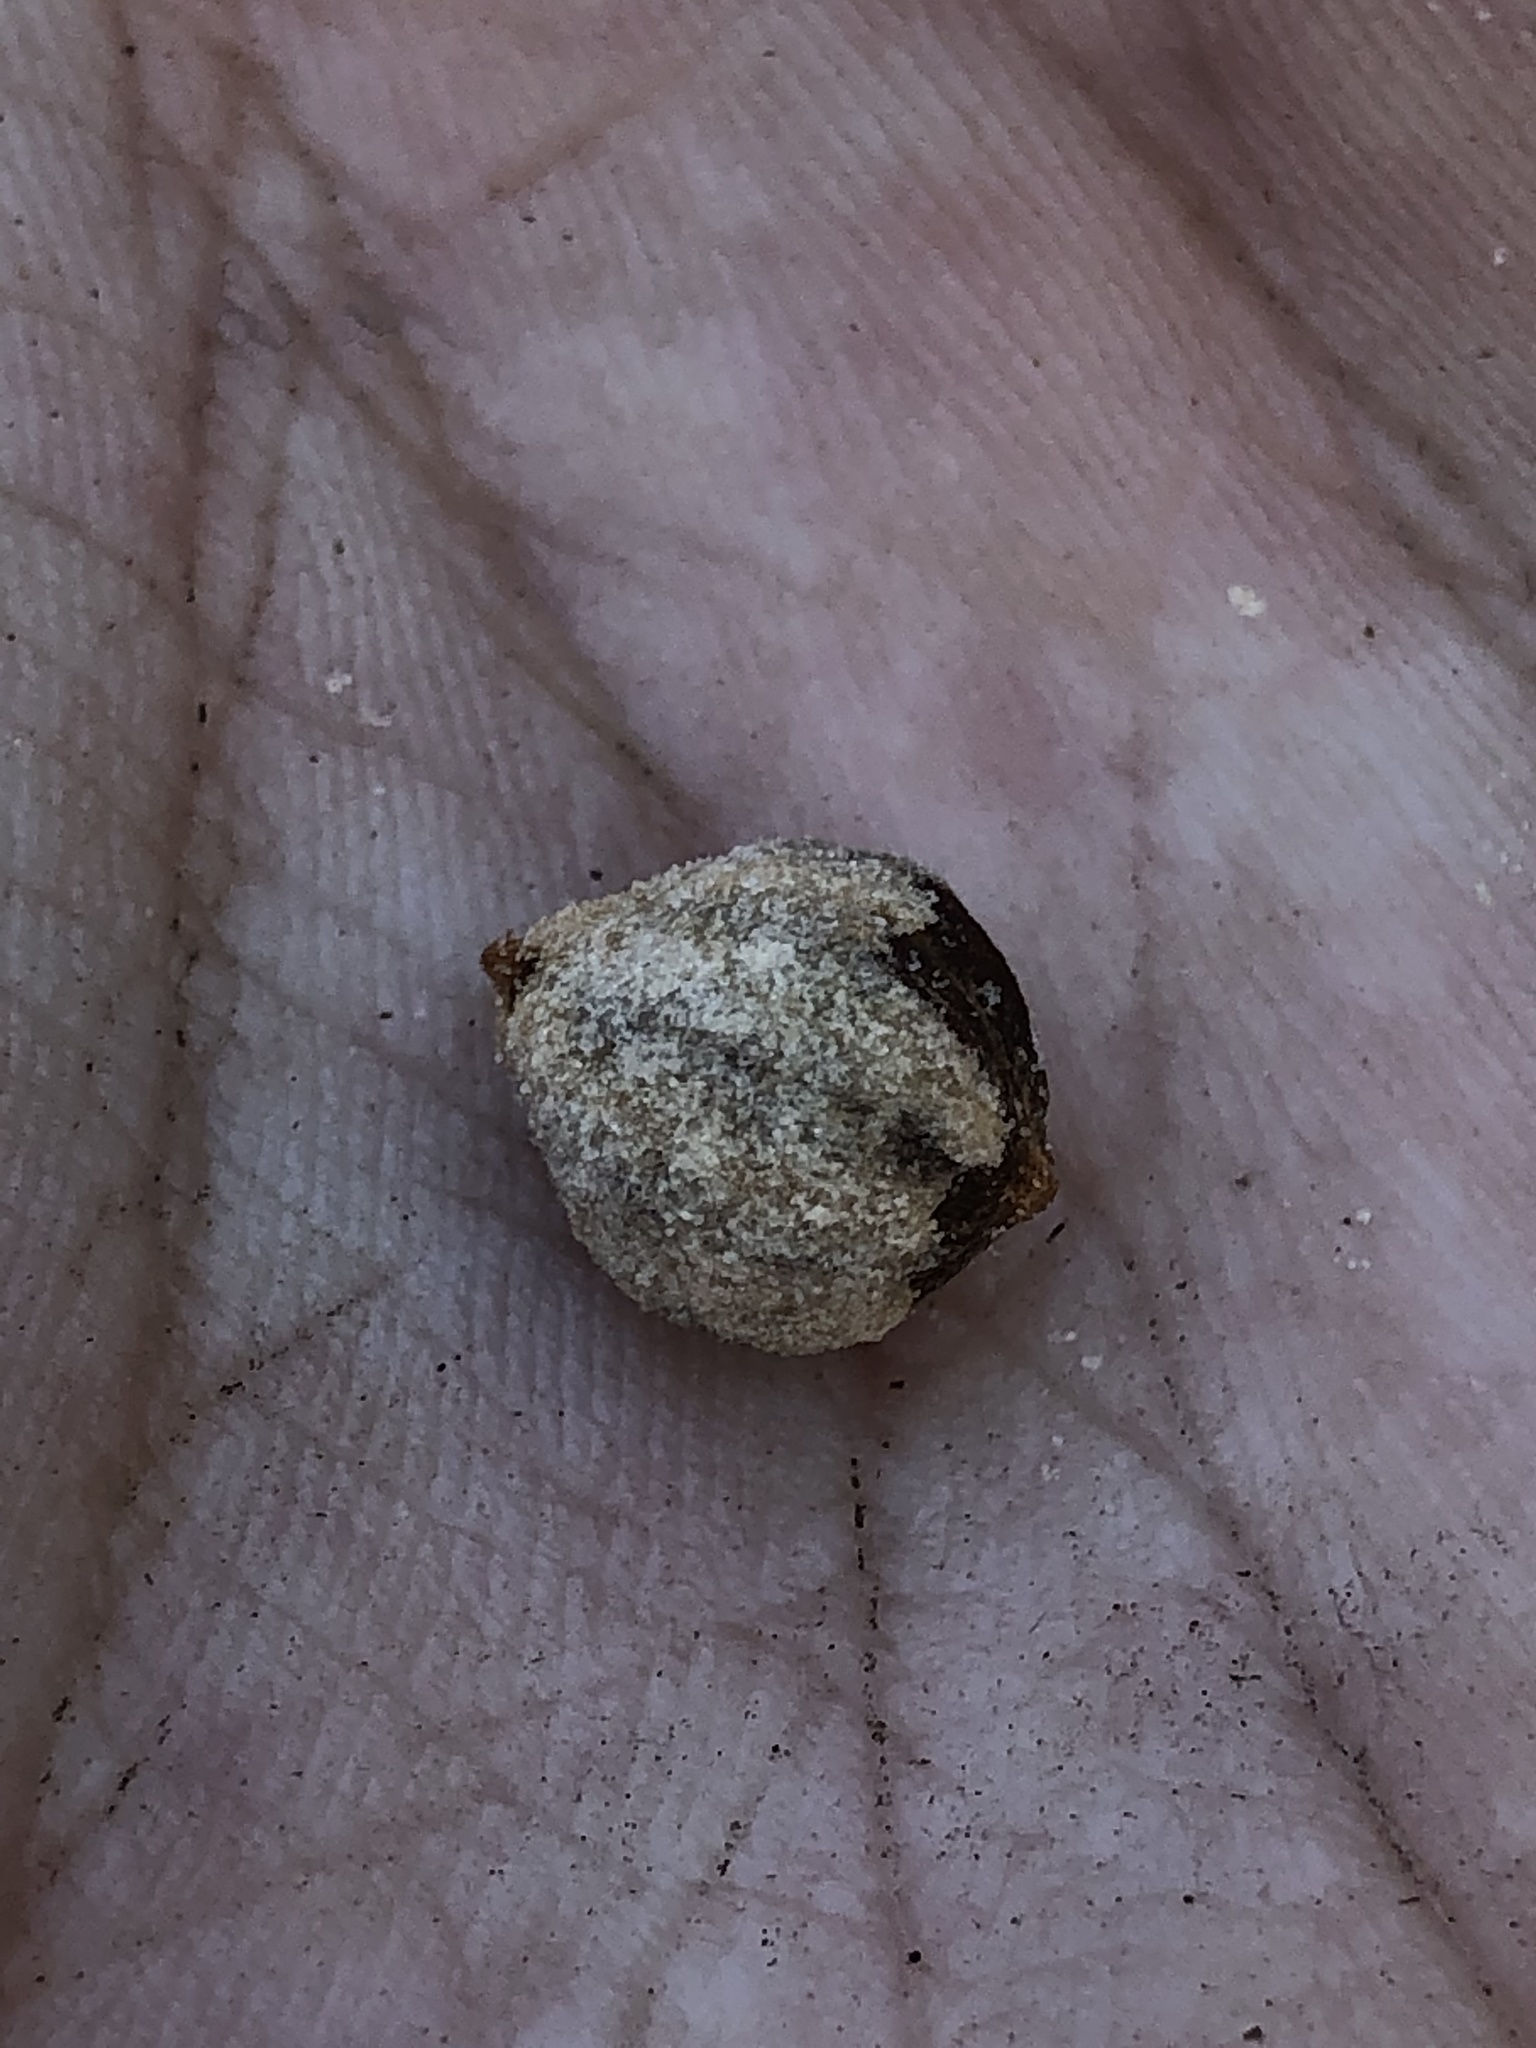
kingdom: Plantae
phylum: Tracheophyta
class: Magnoliopsida
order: Ericales
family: Ericaceae
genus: Arctostaphylos
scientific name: Arctostaphylos glandulosa
